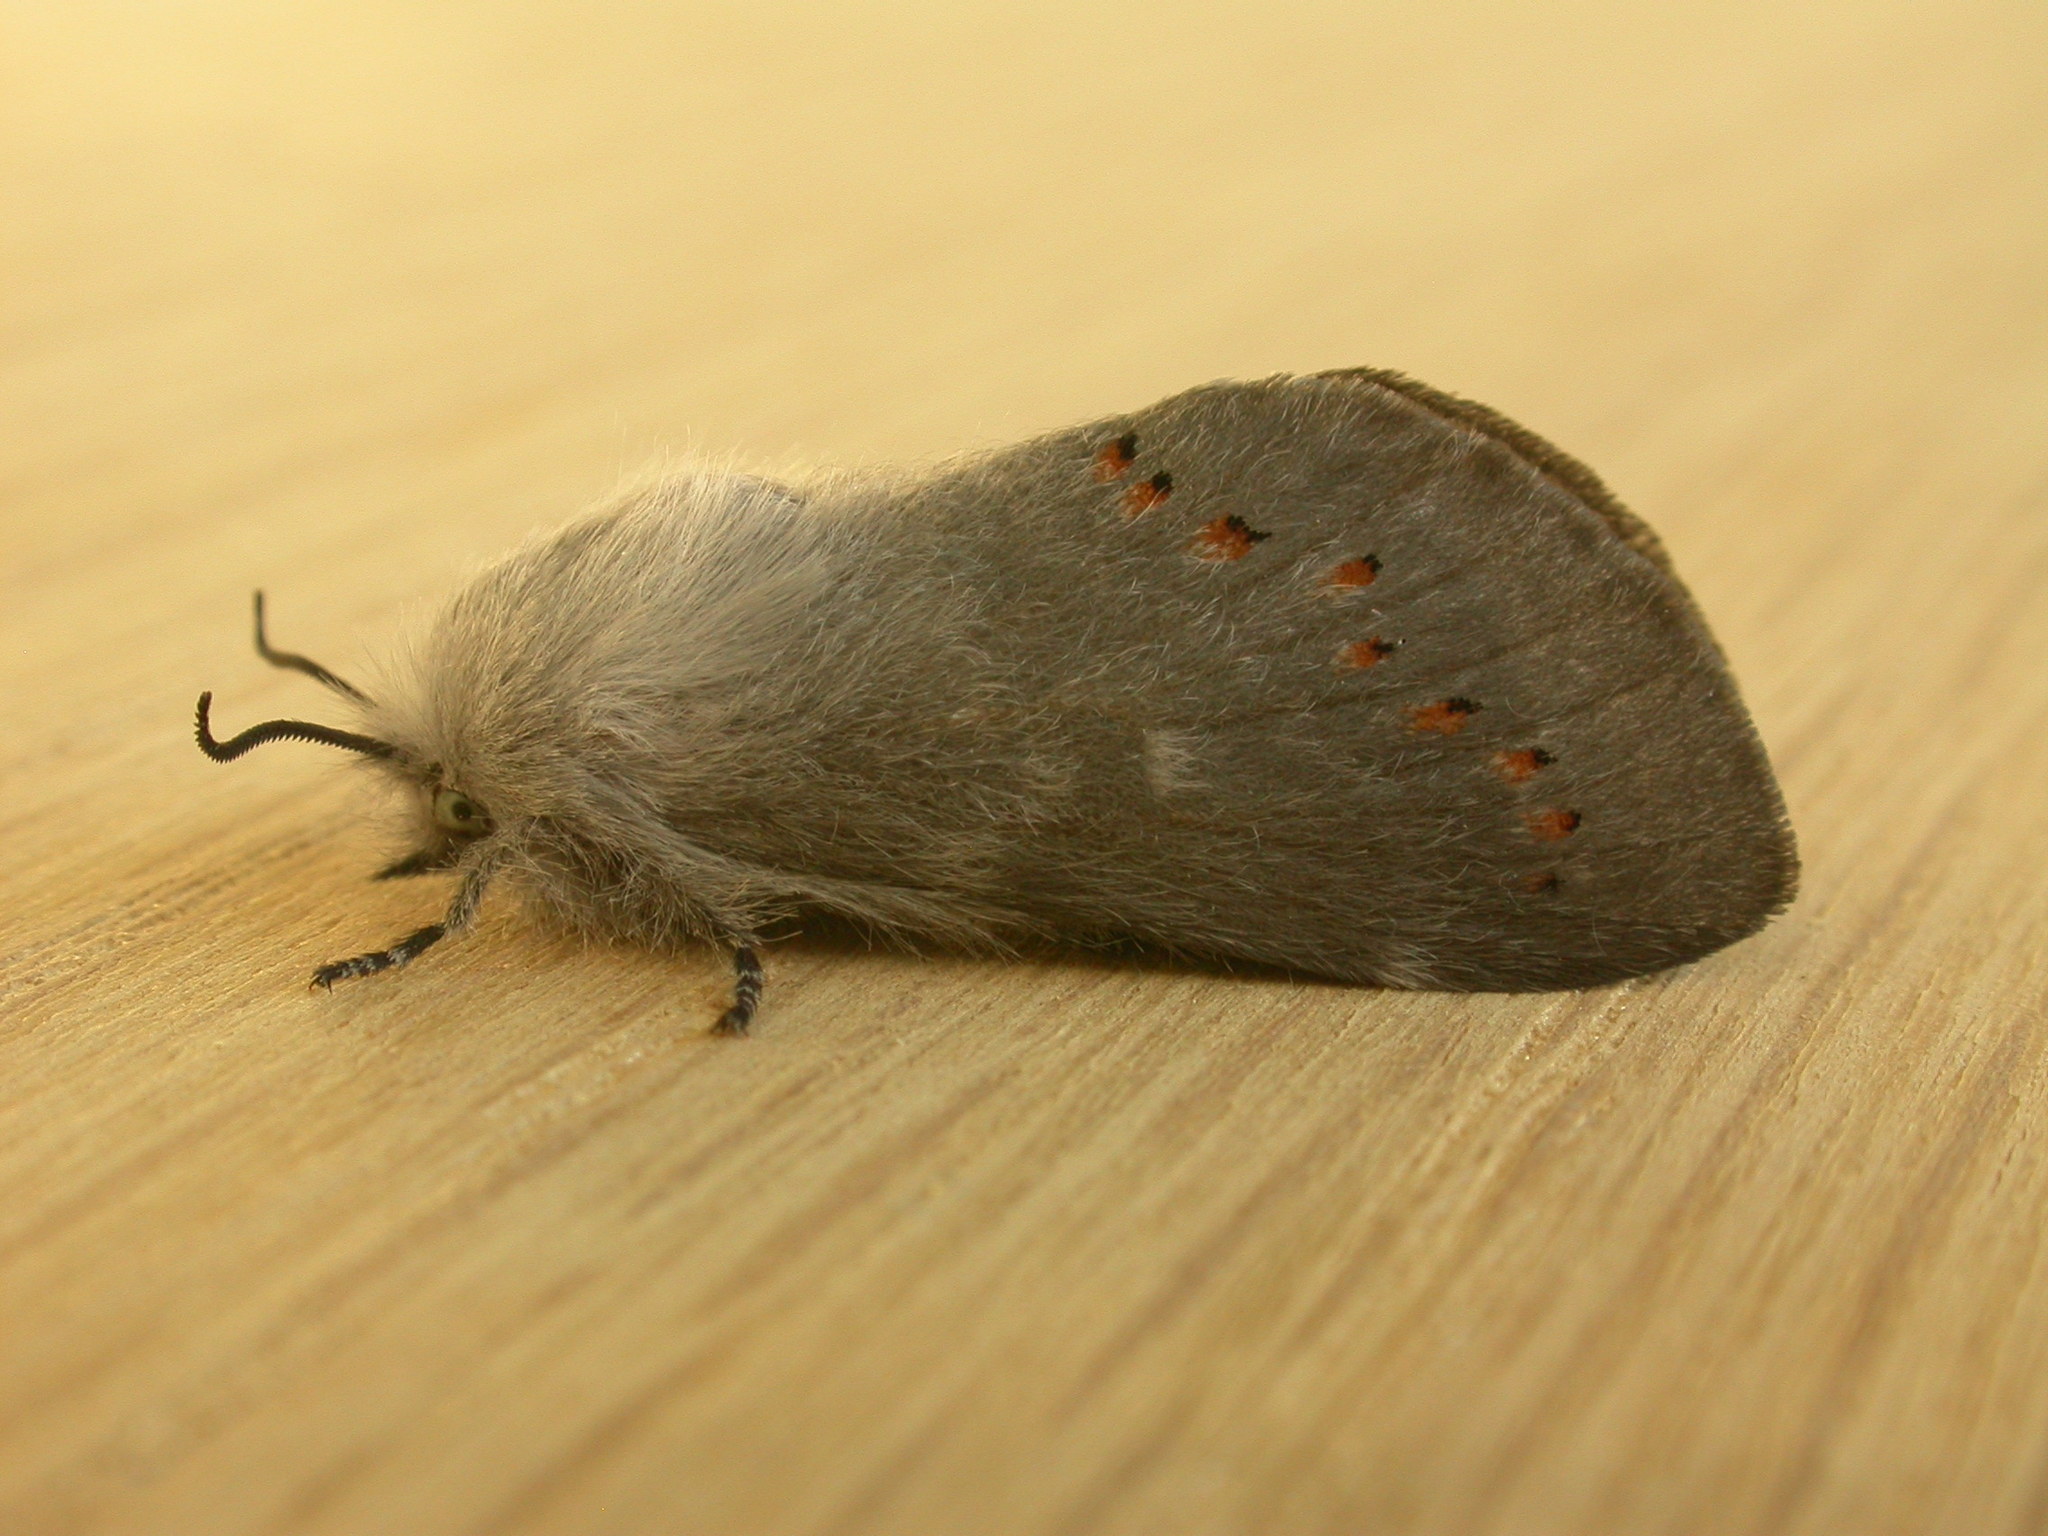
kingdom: Animalia
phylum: Arthropoda
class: Insecta
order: Lepidoptera
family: Lasiocampidae
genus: Pinara
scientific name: Pinara divisa
